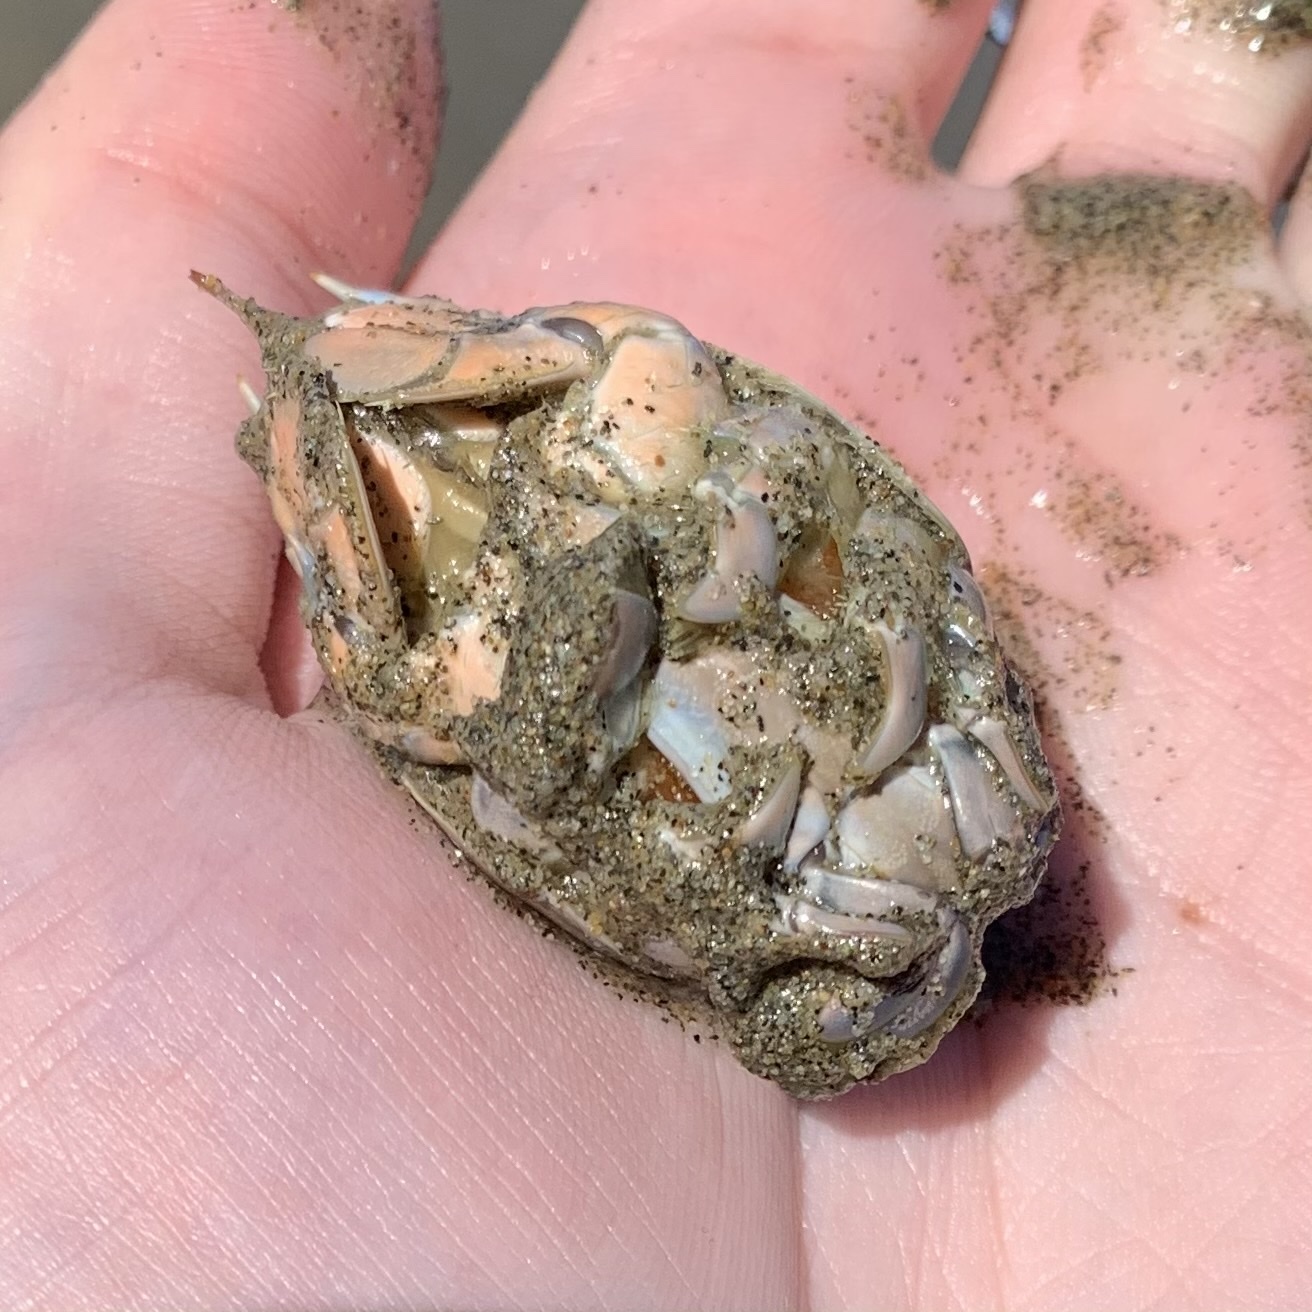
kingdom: Animalia
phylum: Arthropoda
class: Malacostraca
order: Decapoda
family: Hippidae
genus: Emerita
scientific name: Emerita analoga
